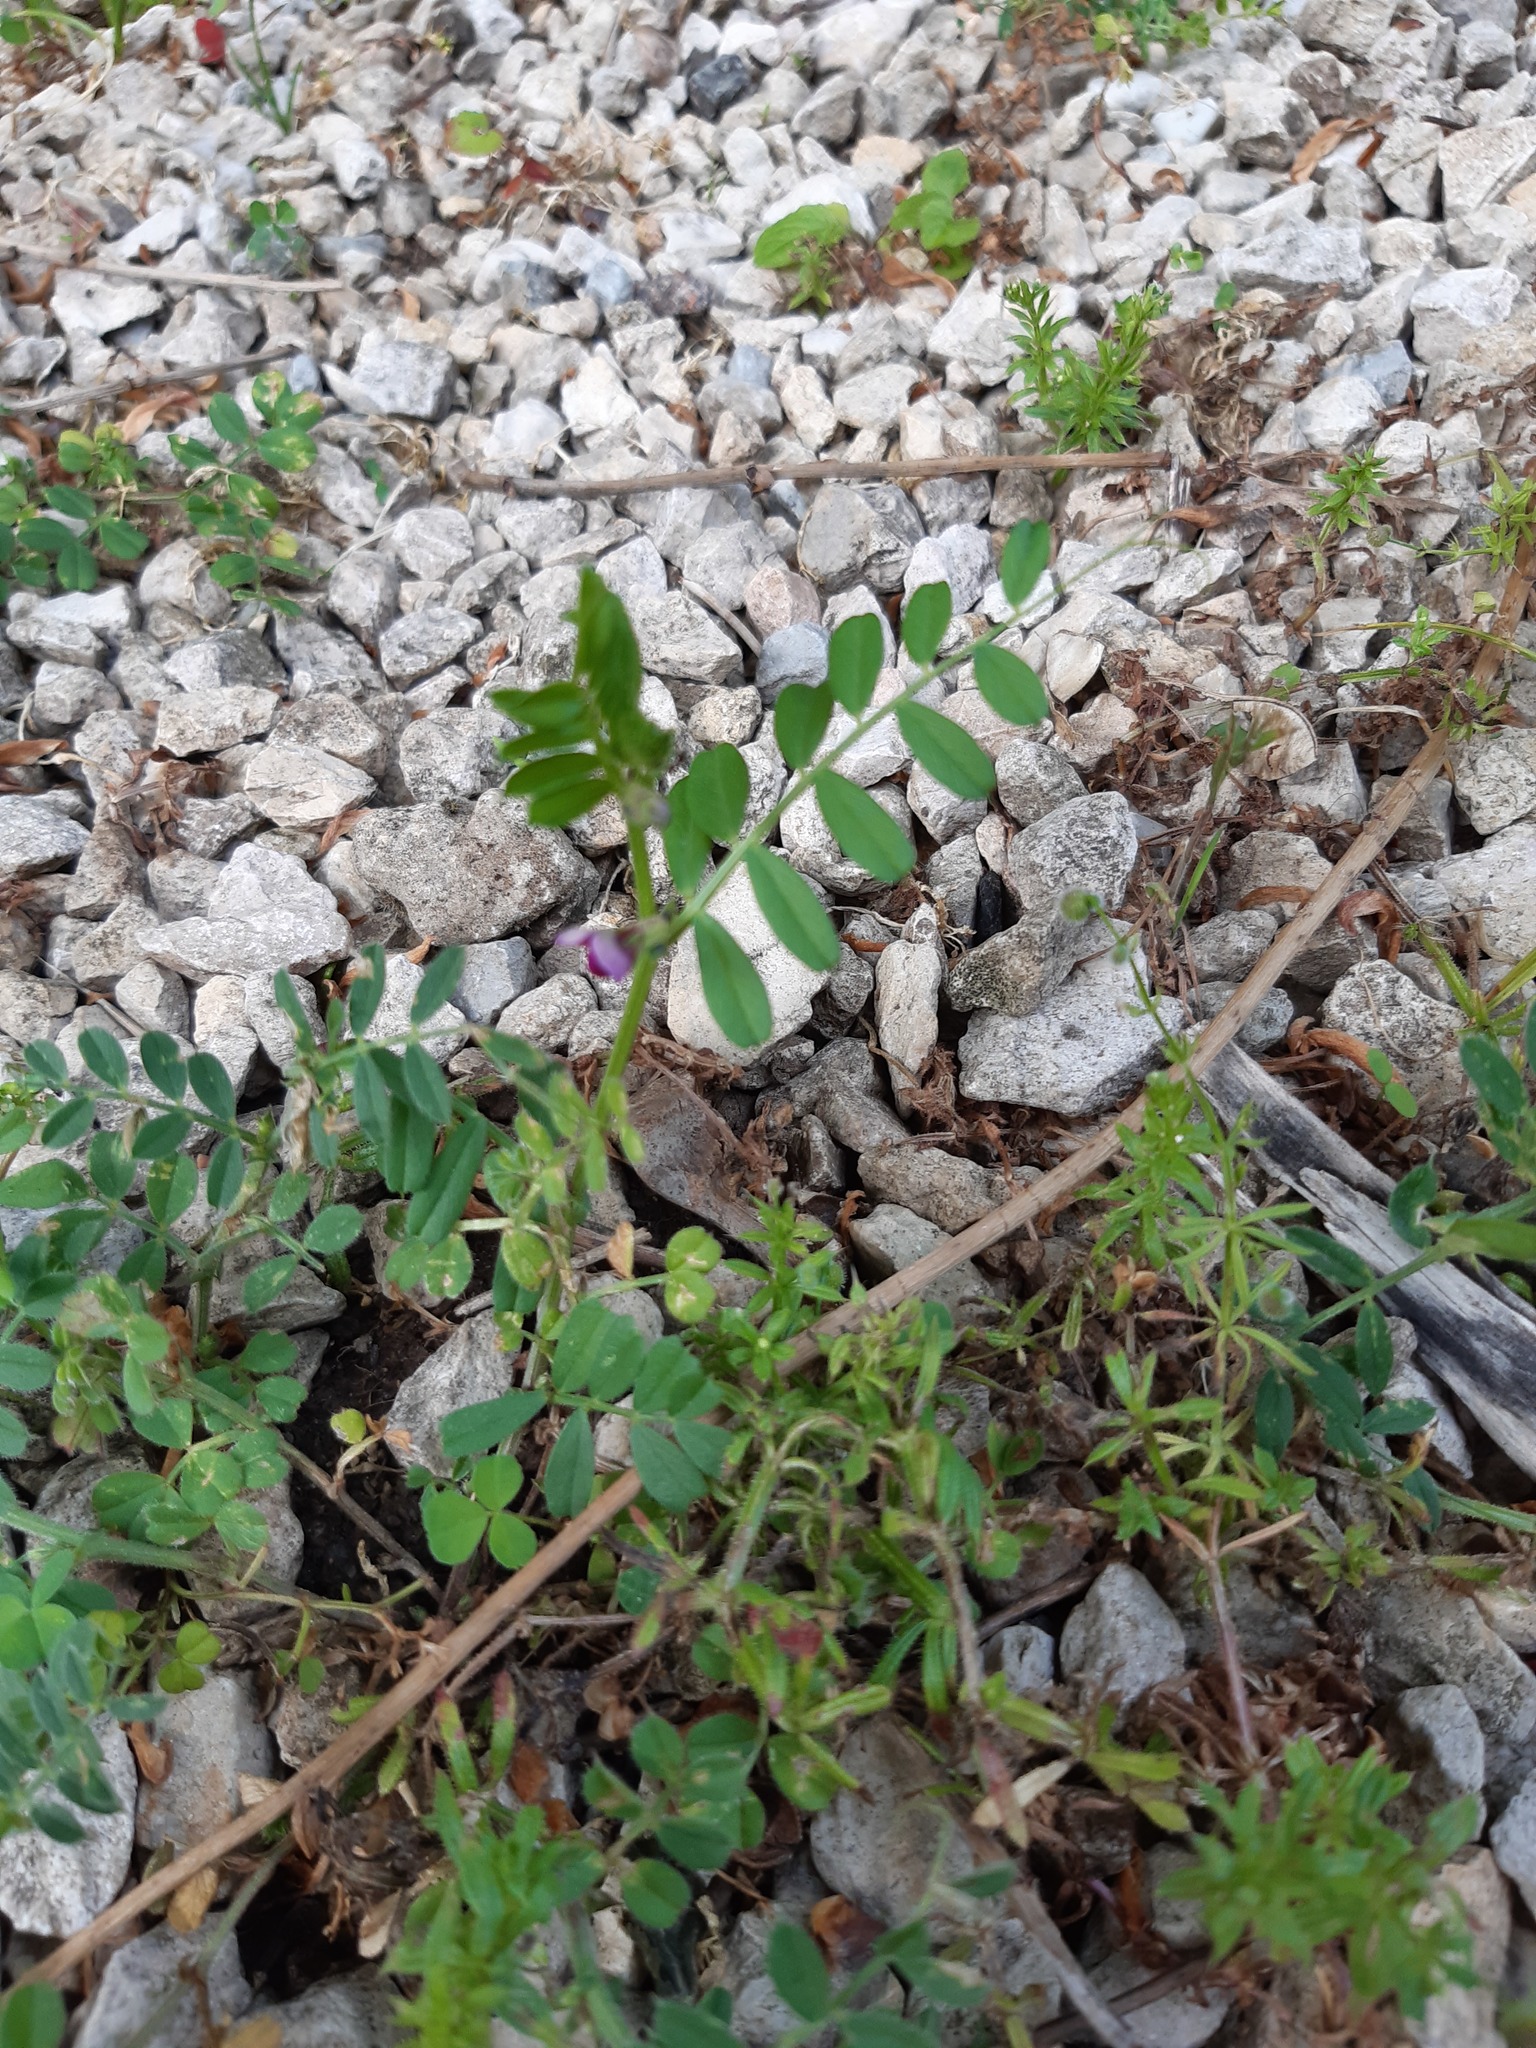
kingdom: Plantae
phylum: Tracheophyta
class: Magnoliopsida
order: Fabales
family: Fabaceae
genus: Vicia
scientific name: Vicia sativa
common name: Garden vetch
